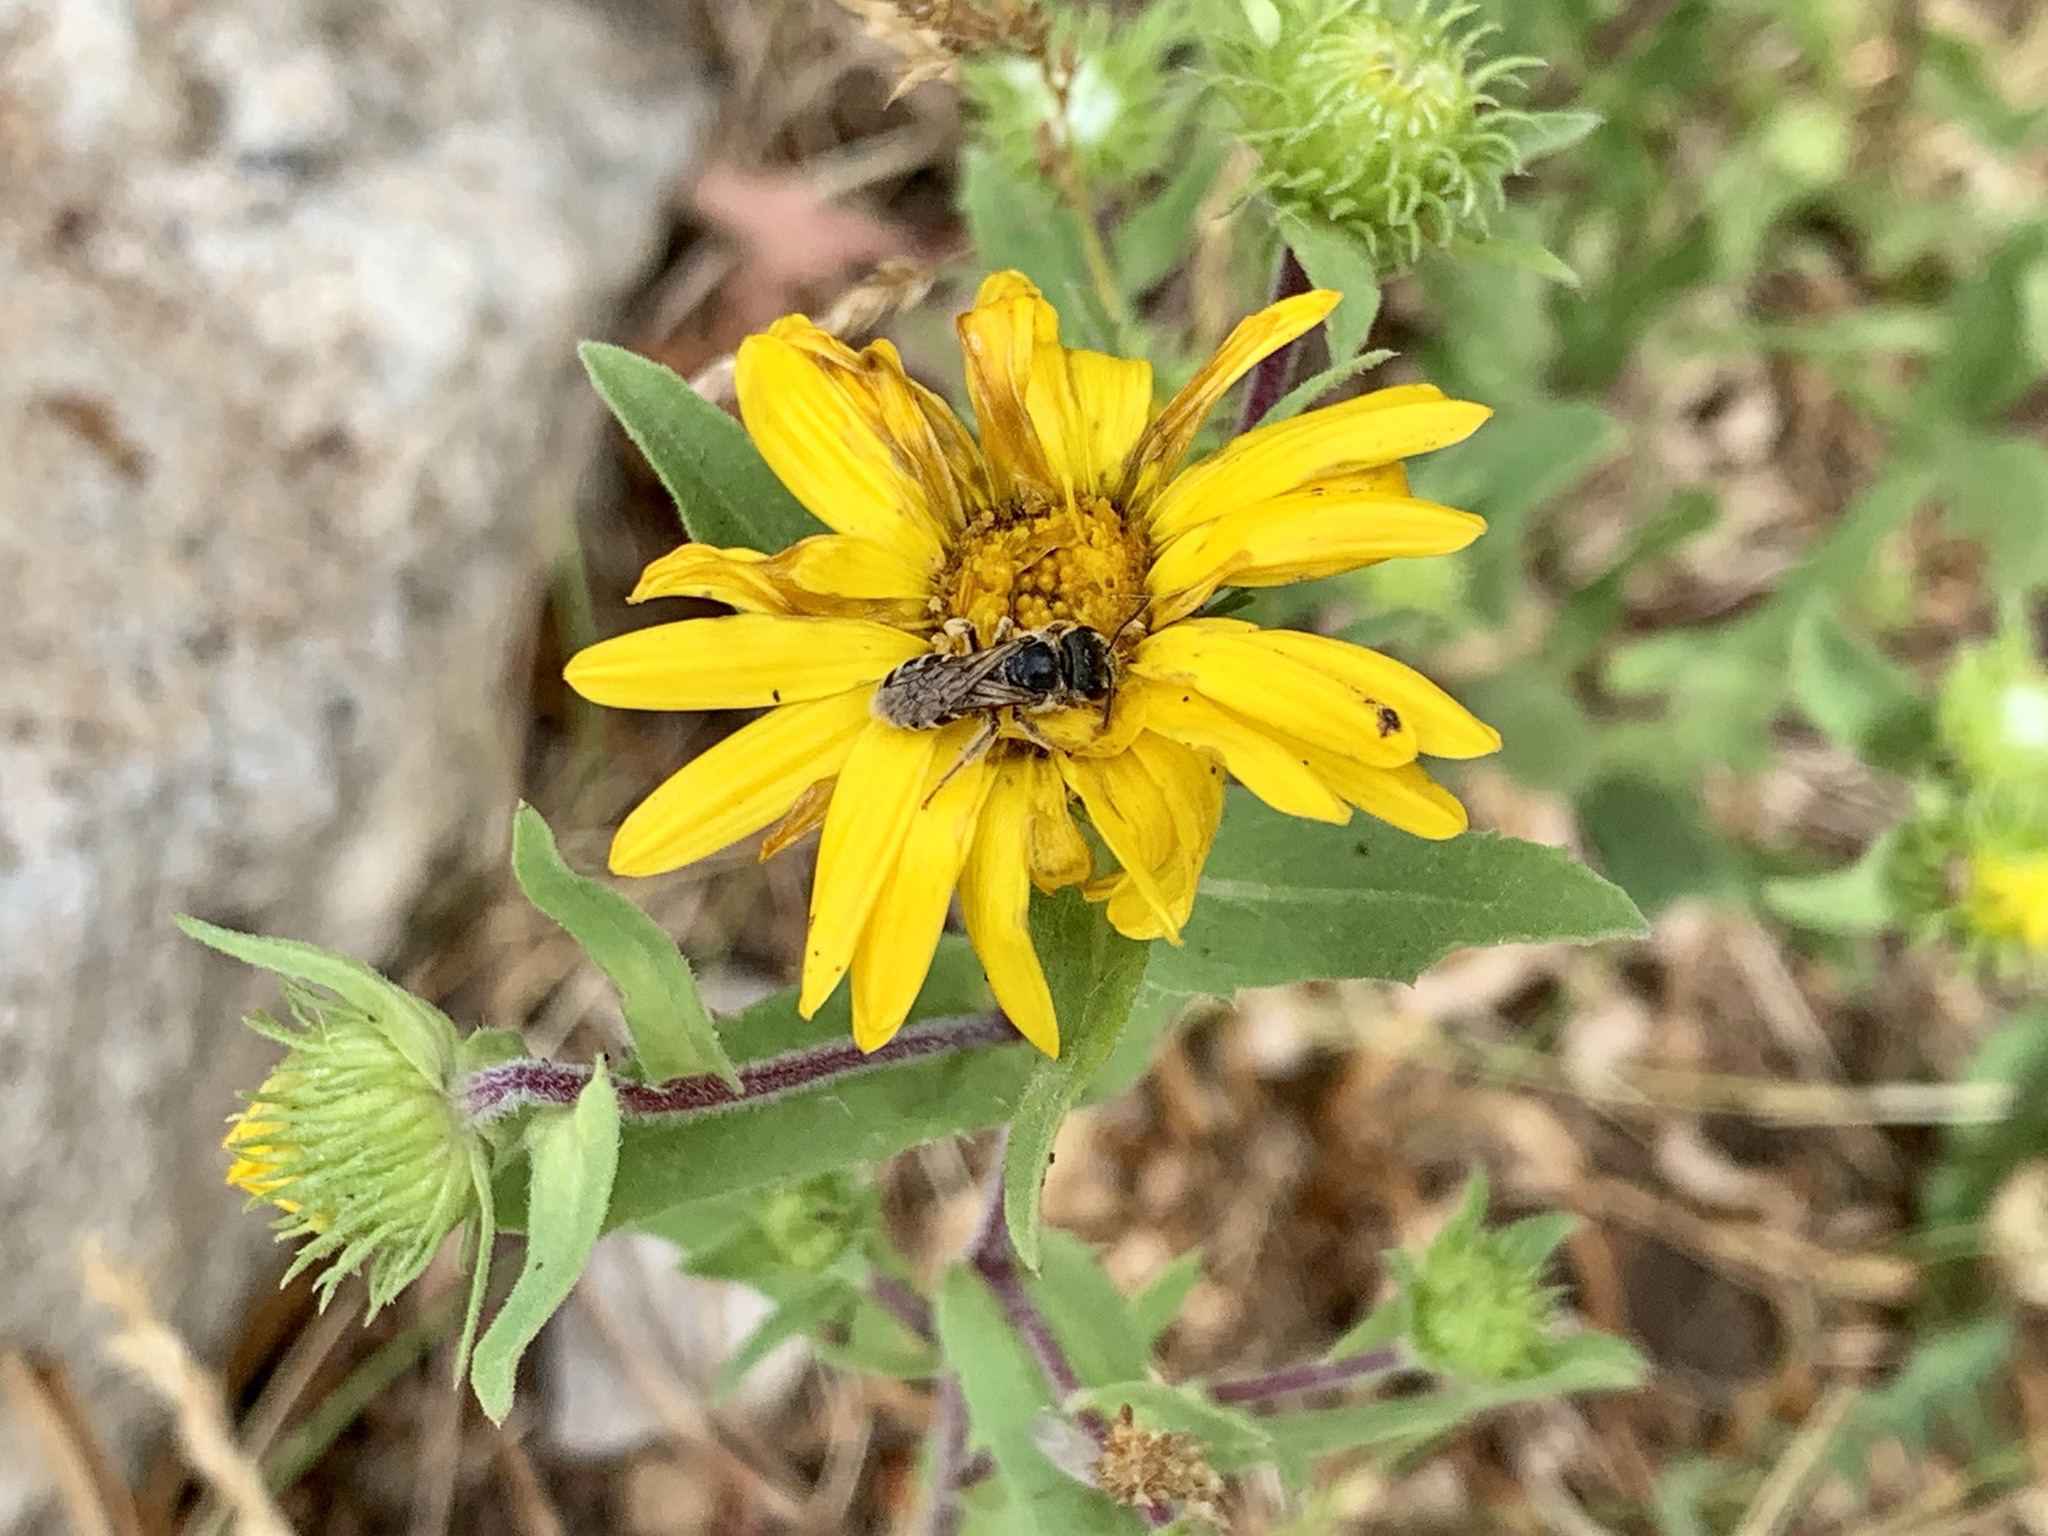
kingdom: Animalia
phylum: Arthropoda
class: Insecta
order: Hymenoptera
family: Halictidae
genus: Halictus
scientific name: Halictus ligatus
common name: Ligated furrow bee
